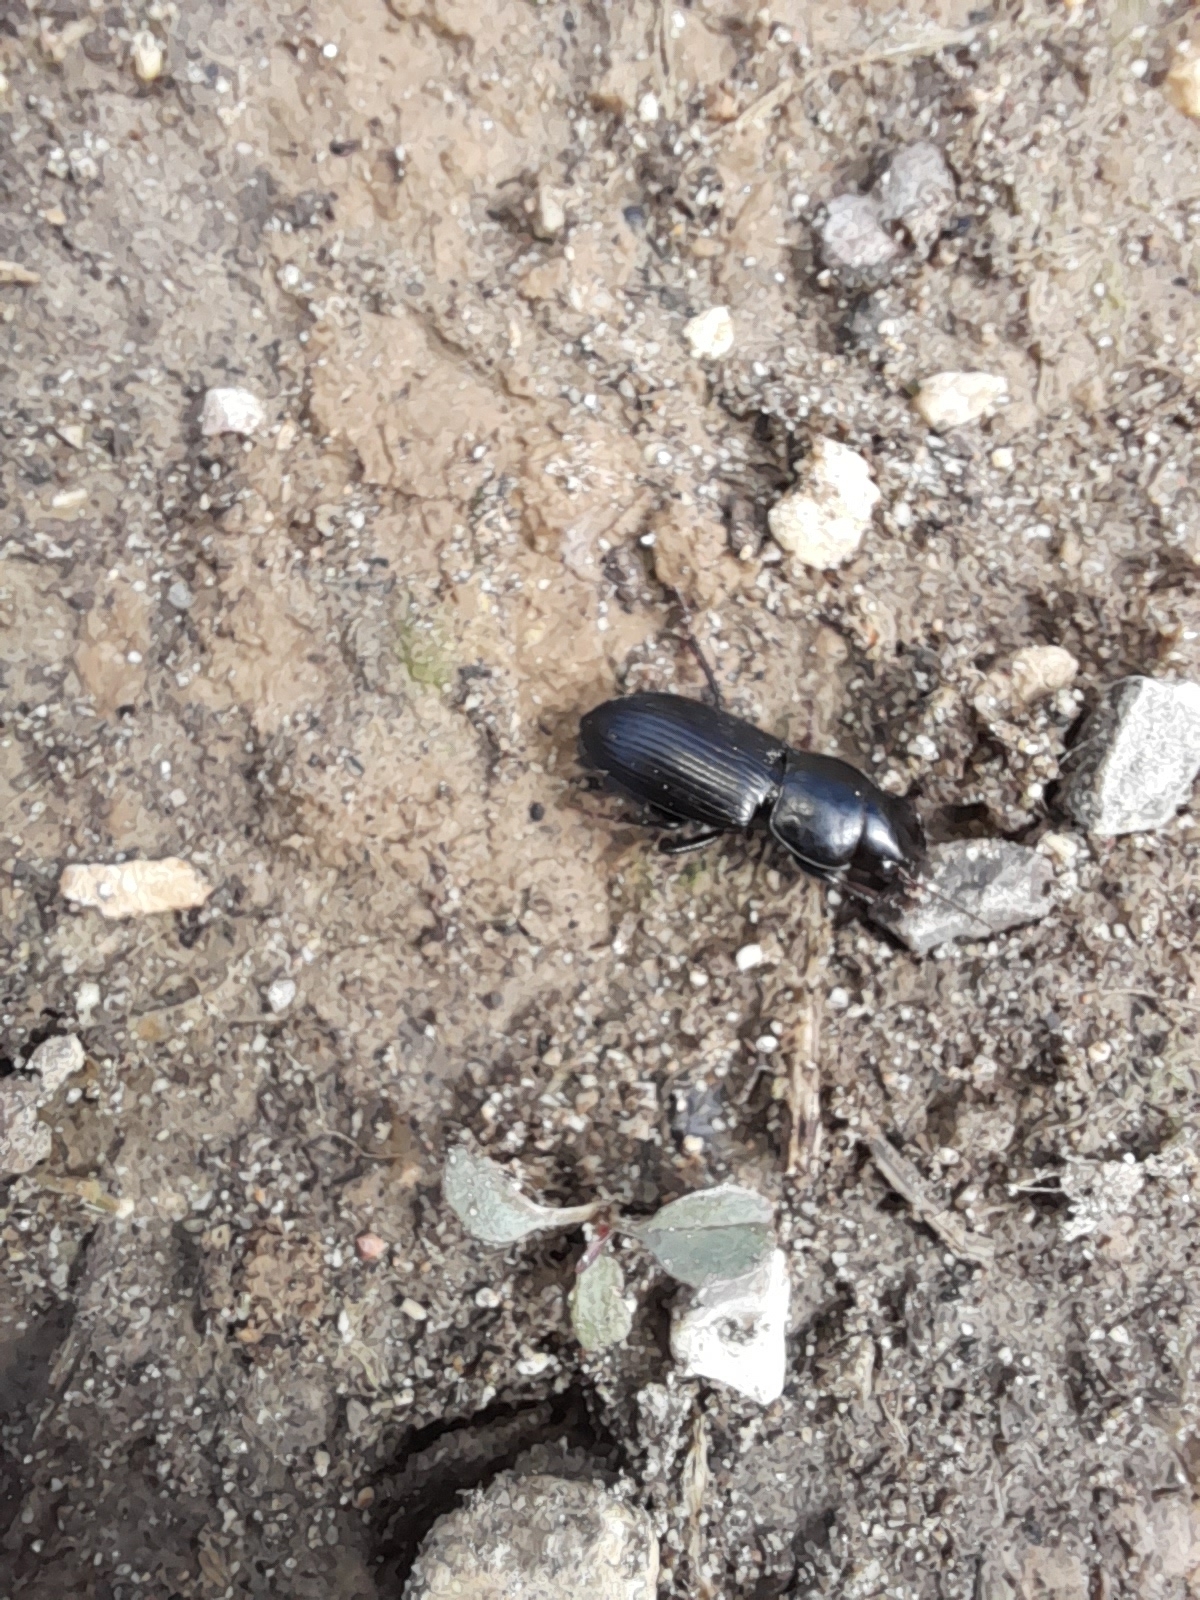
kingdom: Animalia
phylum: Arthropoda
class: Insecta
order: Coleoptera
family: Carabidae
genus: Acinopus
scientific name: Acinopus picipes
